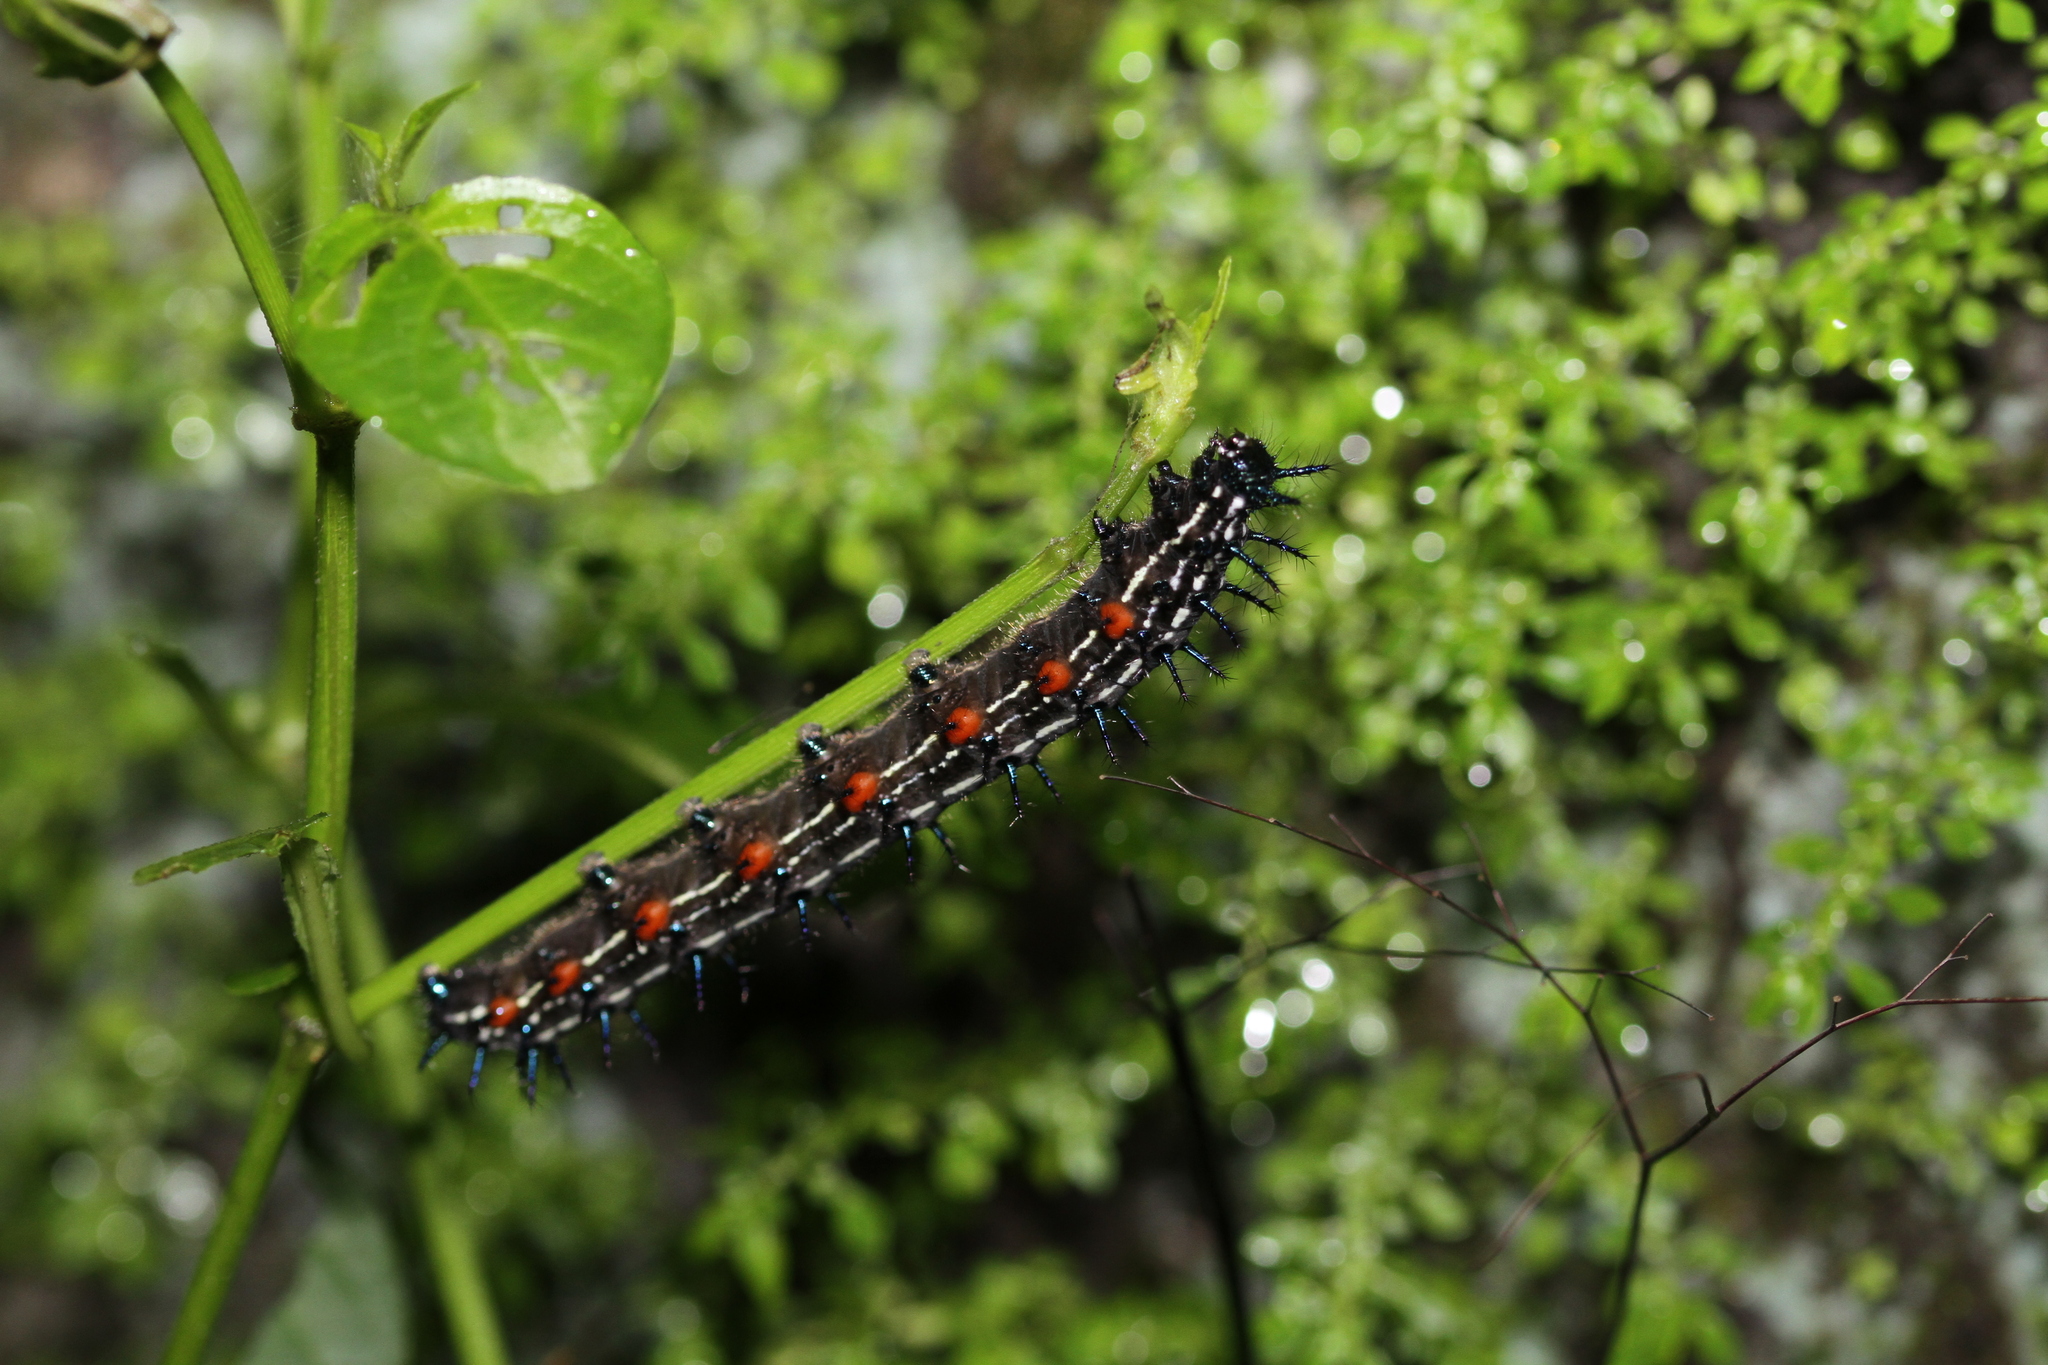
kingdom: Animalia
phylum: Arthropoda
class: Insecta
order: Lepidoptera
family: Nymphalidae
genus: Doleschallia
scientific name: Doleschallia bisaltide
